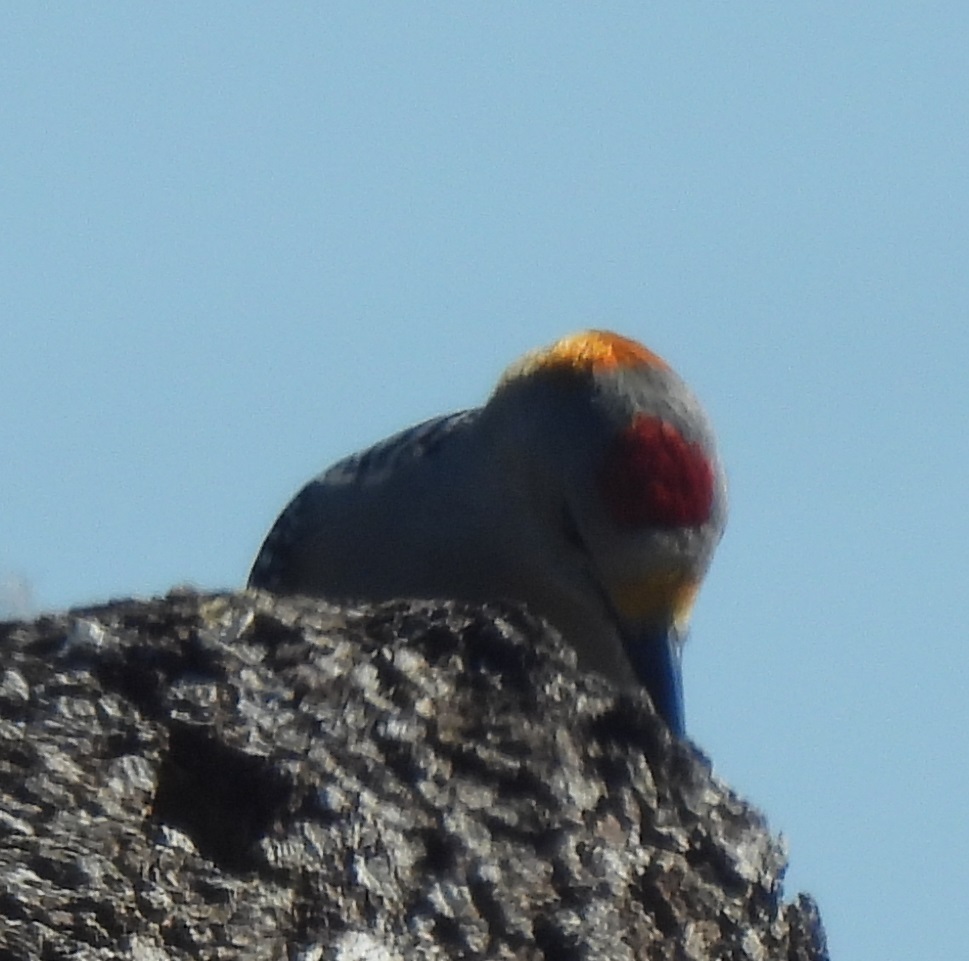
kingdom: Animalia
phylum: Chordata
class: Aves
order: Piciformes
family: Picidae
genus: Melanerpes
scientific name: Melanerpes aurifrons
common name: Golden-fronted woodpecker
